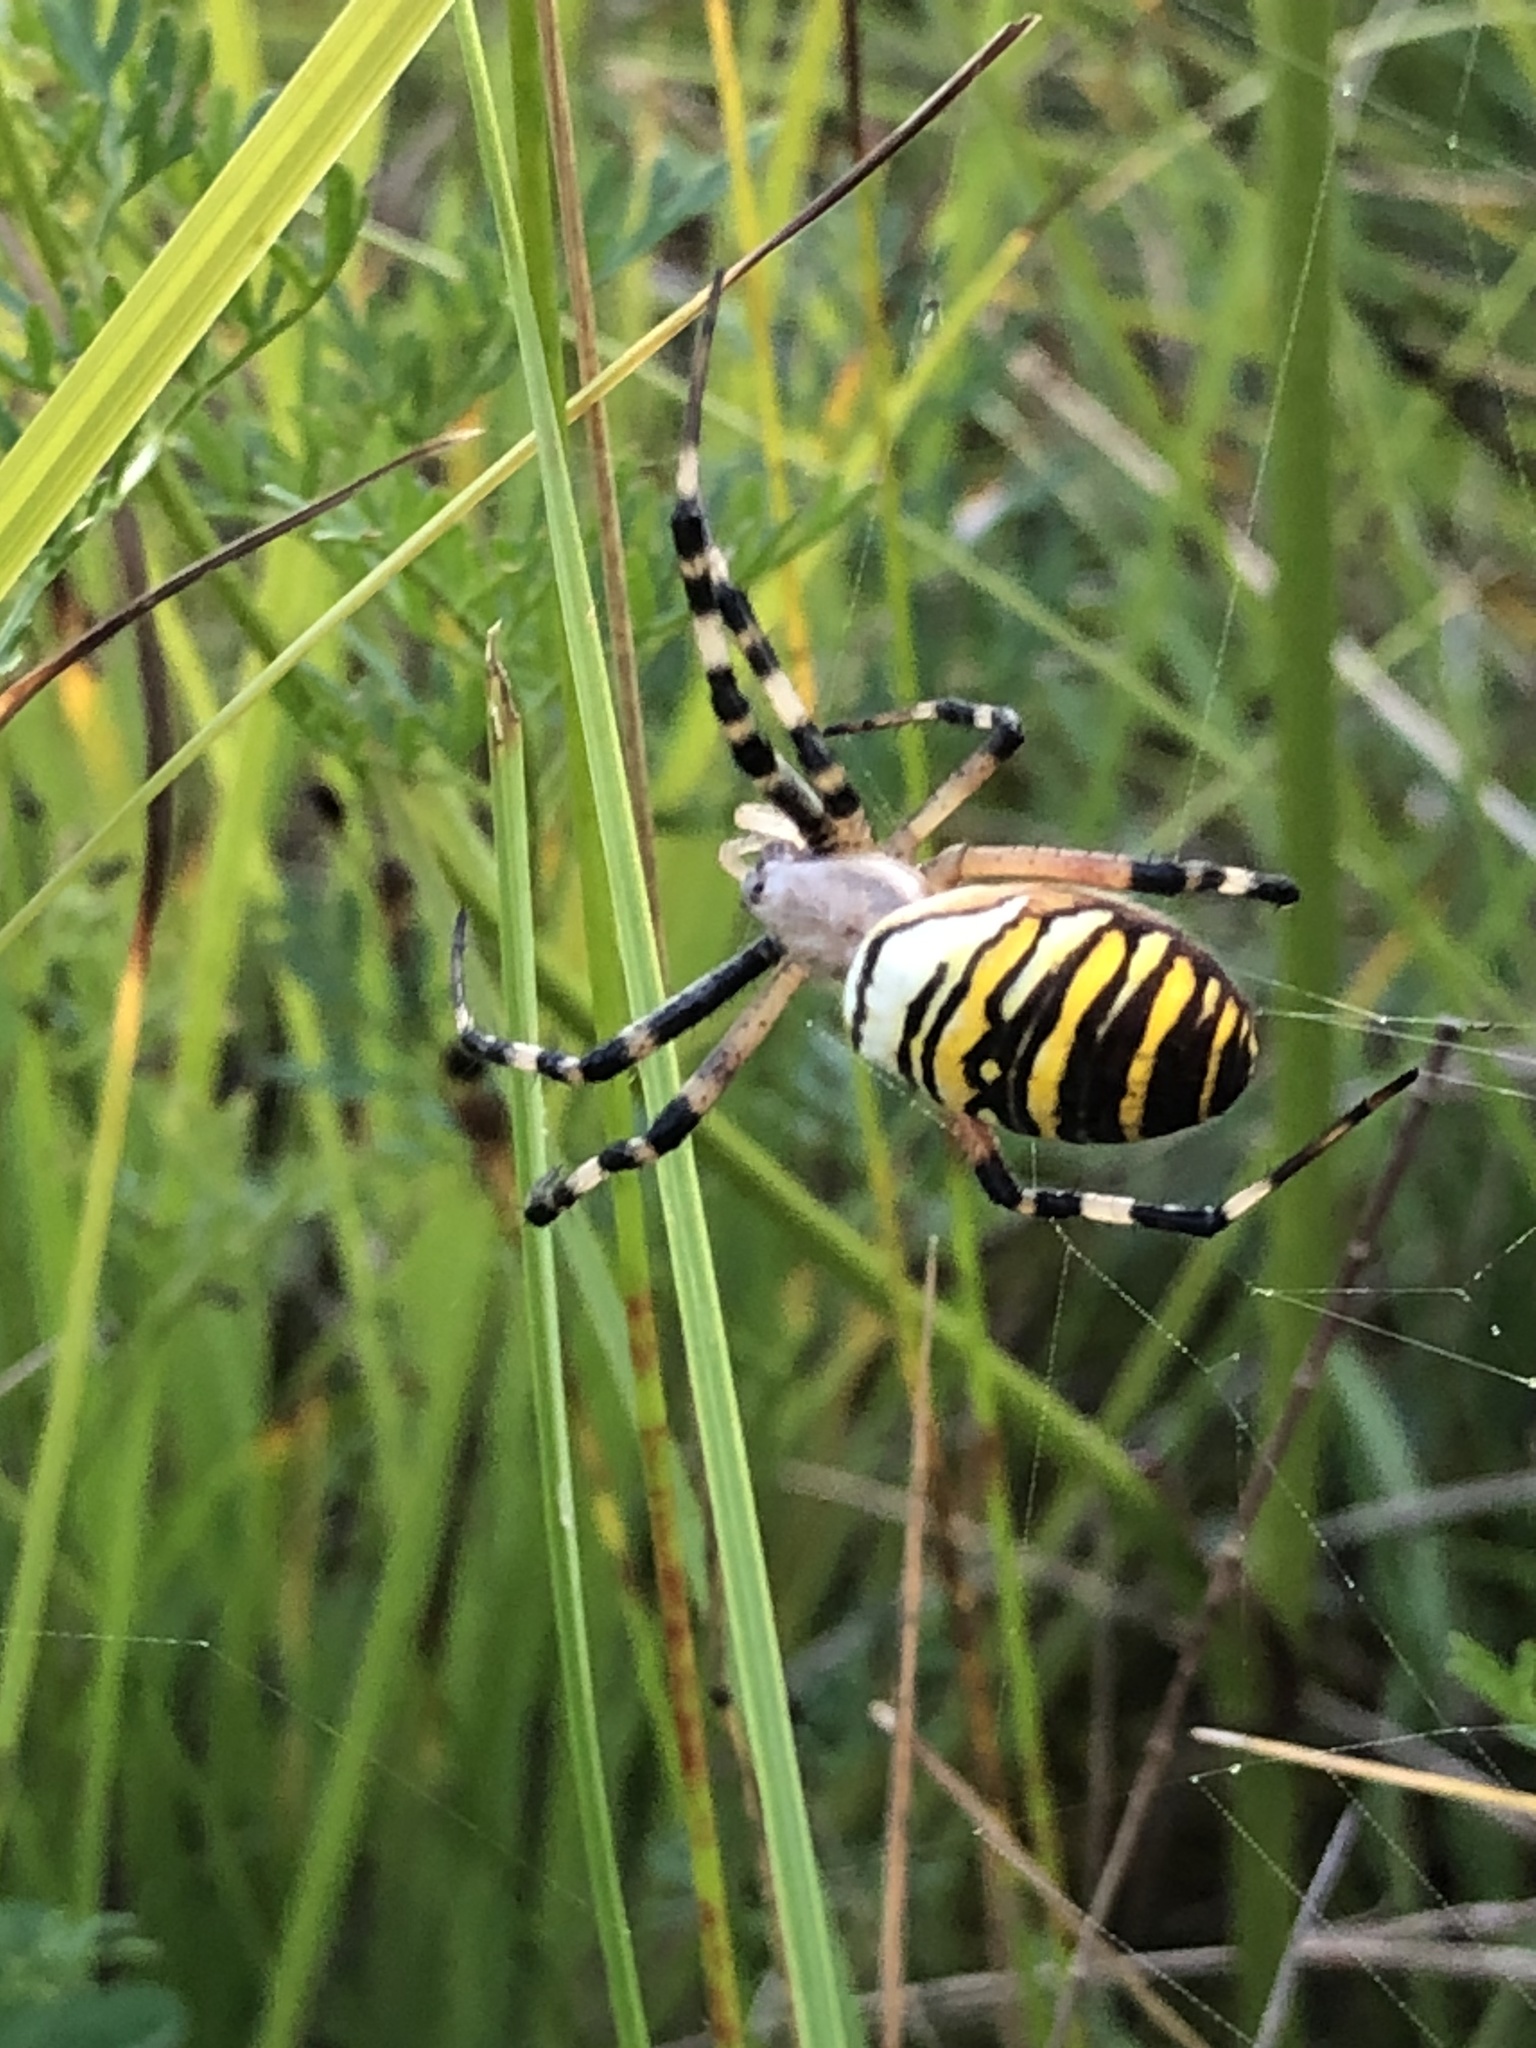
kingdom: Animalia
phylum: Arthropoda
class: Arachnida
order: Araneae
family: Araneidae
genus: Argiope
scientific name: Argiope bruennichi
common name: Wasp spider
